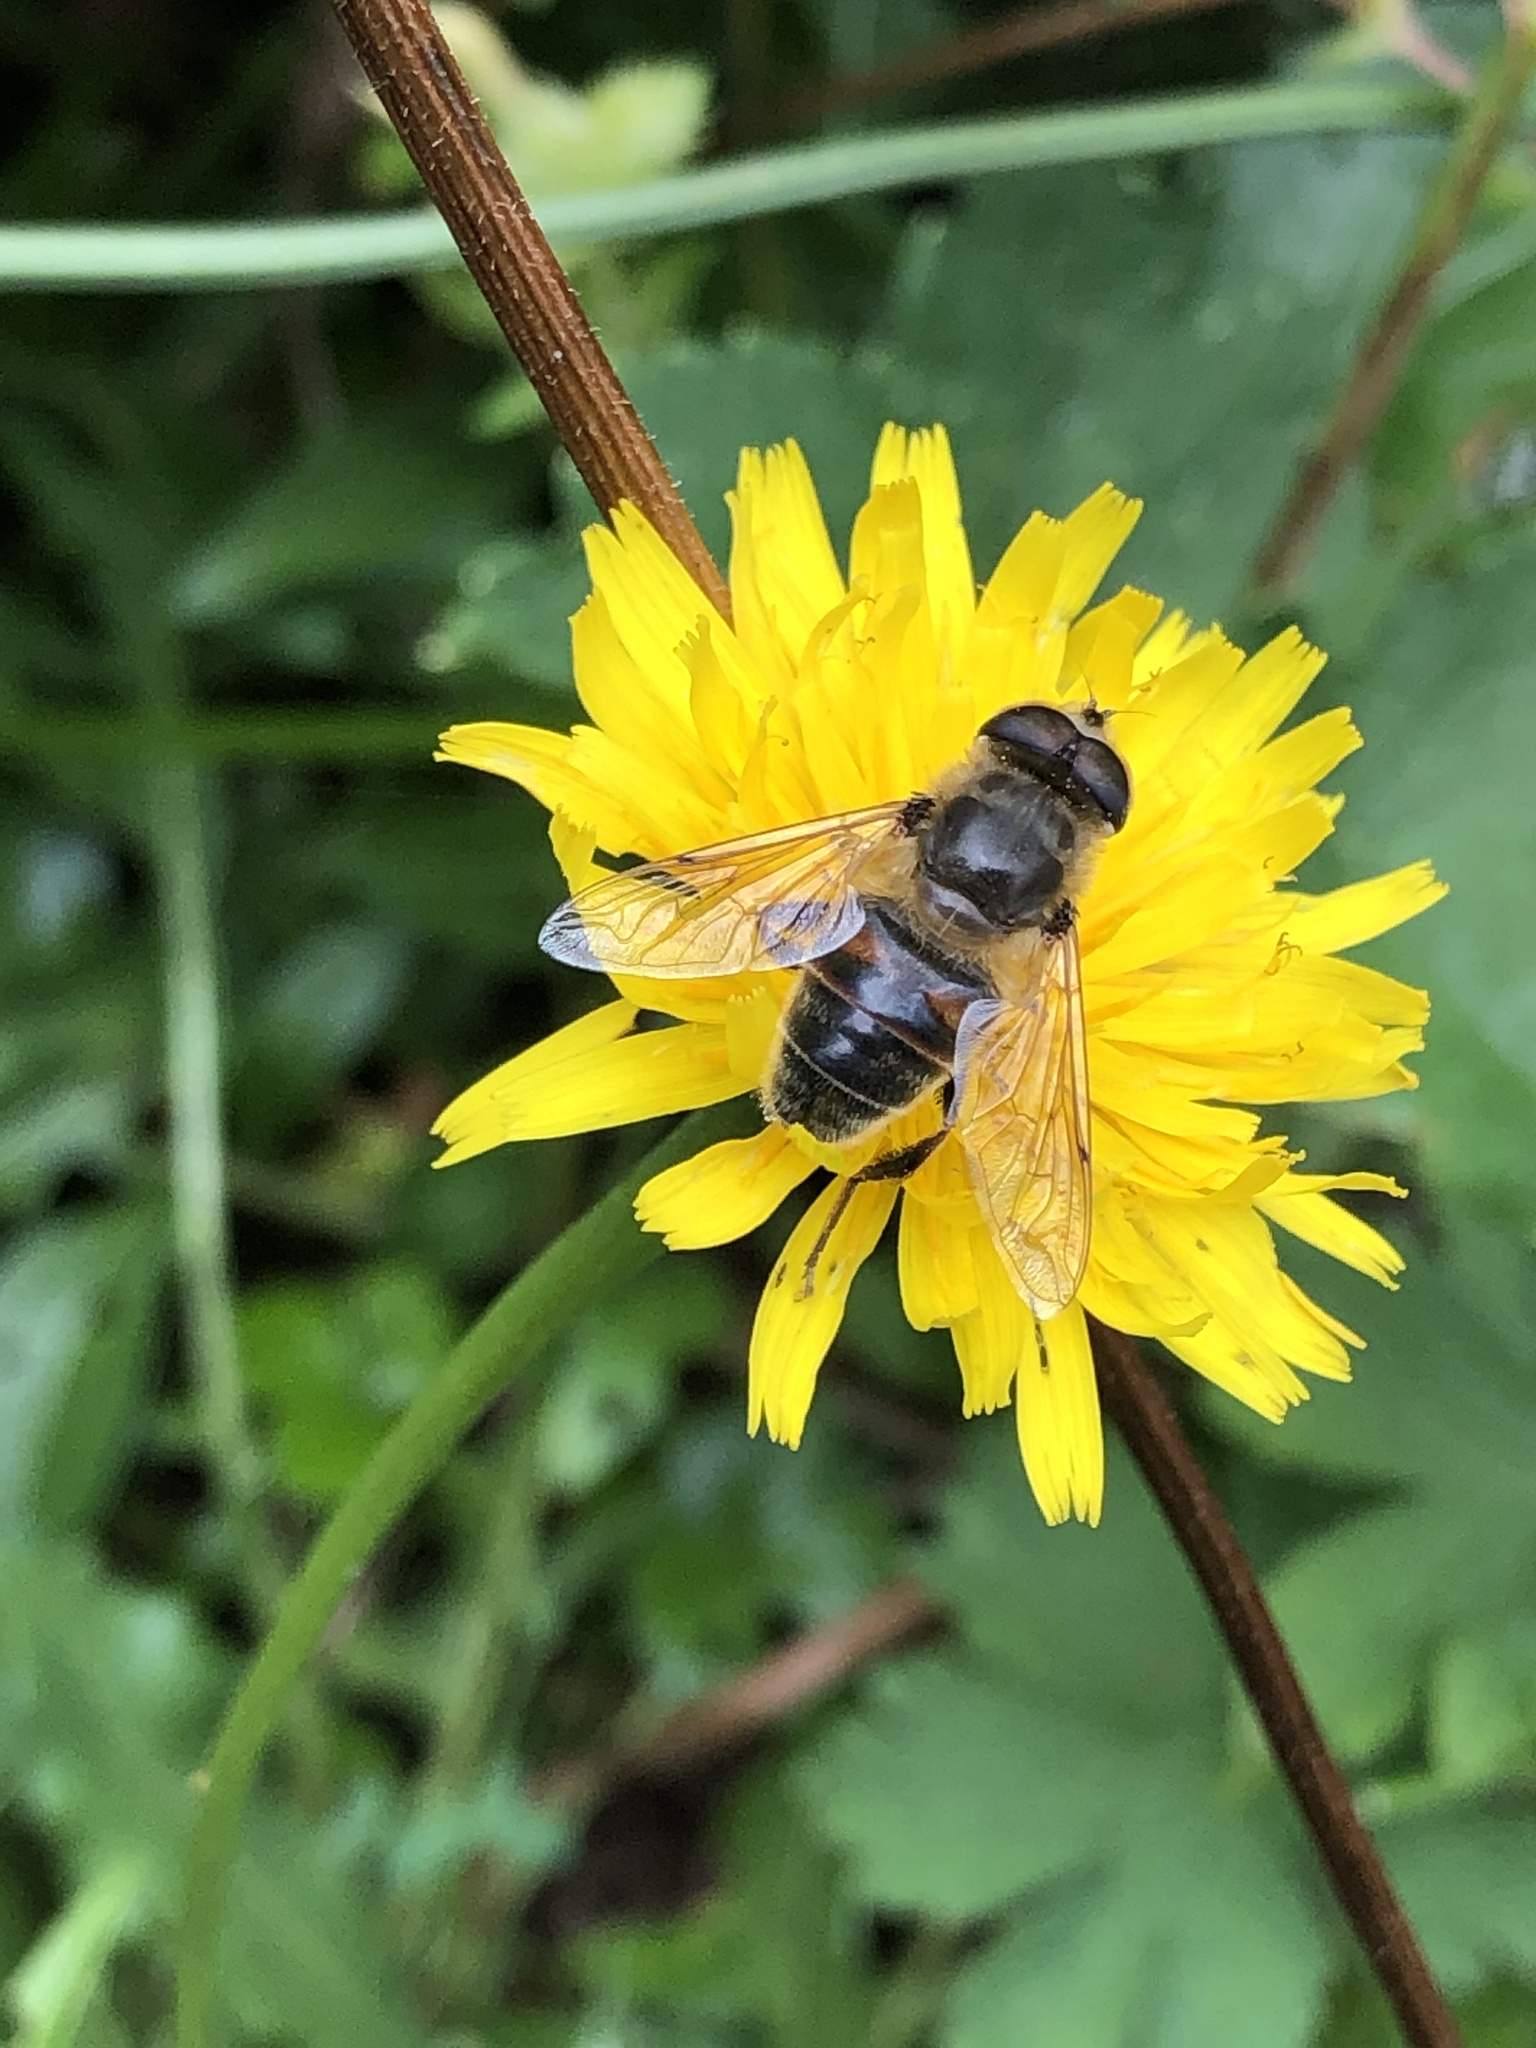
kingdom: Animalia
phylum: Arthropoda
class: Insecta
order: Diptera
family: Syrphidae
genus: Eristalis
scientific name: Eristalis tenax
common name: Drone fly
